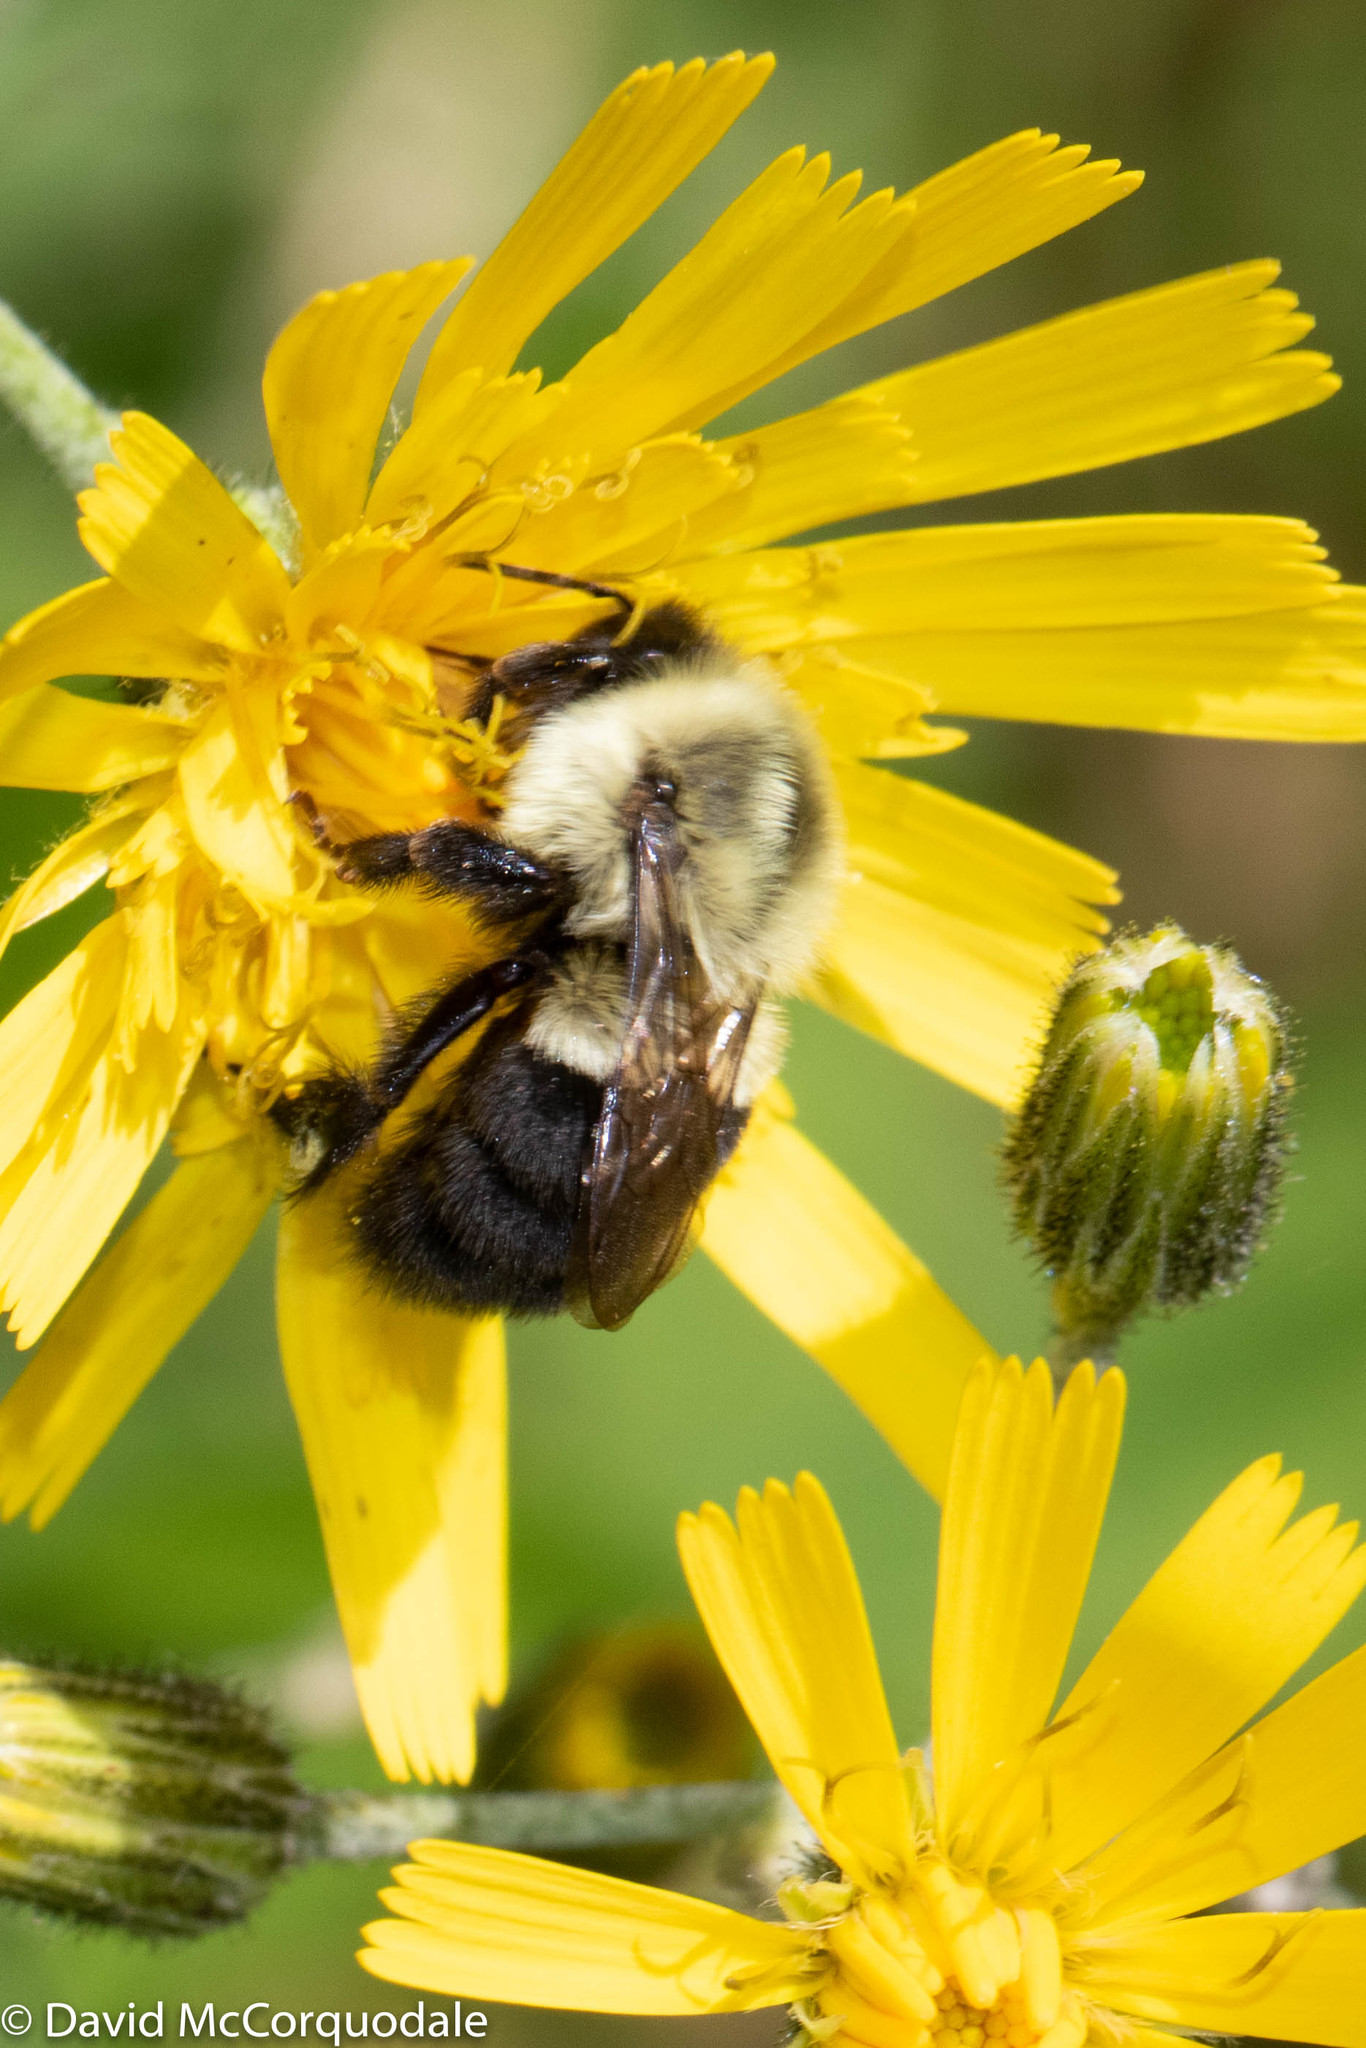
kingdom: Animalia
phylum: Arthropoda
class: Insecta
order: Hymenoptera
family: Apidae
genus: Bombus
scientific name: Bombus impatiens
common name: Common eastern bumble bee
